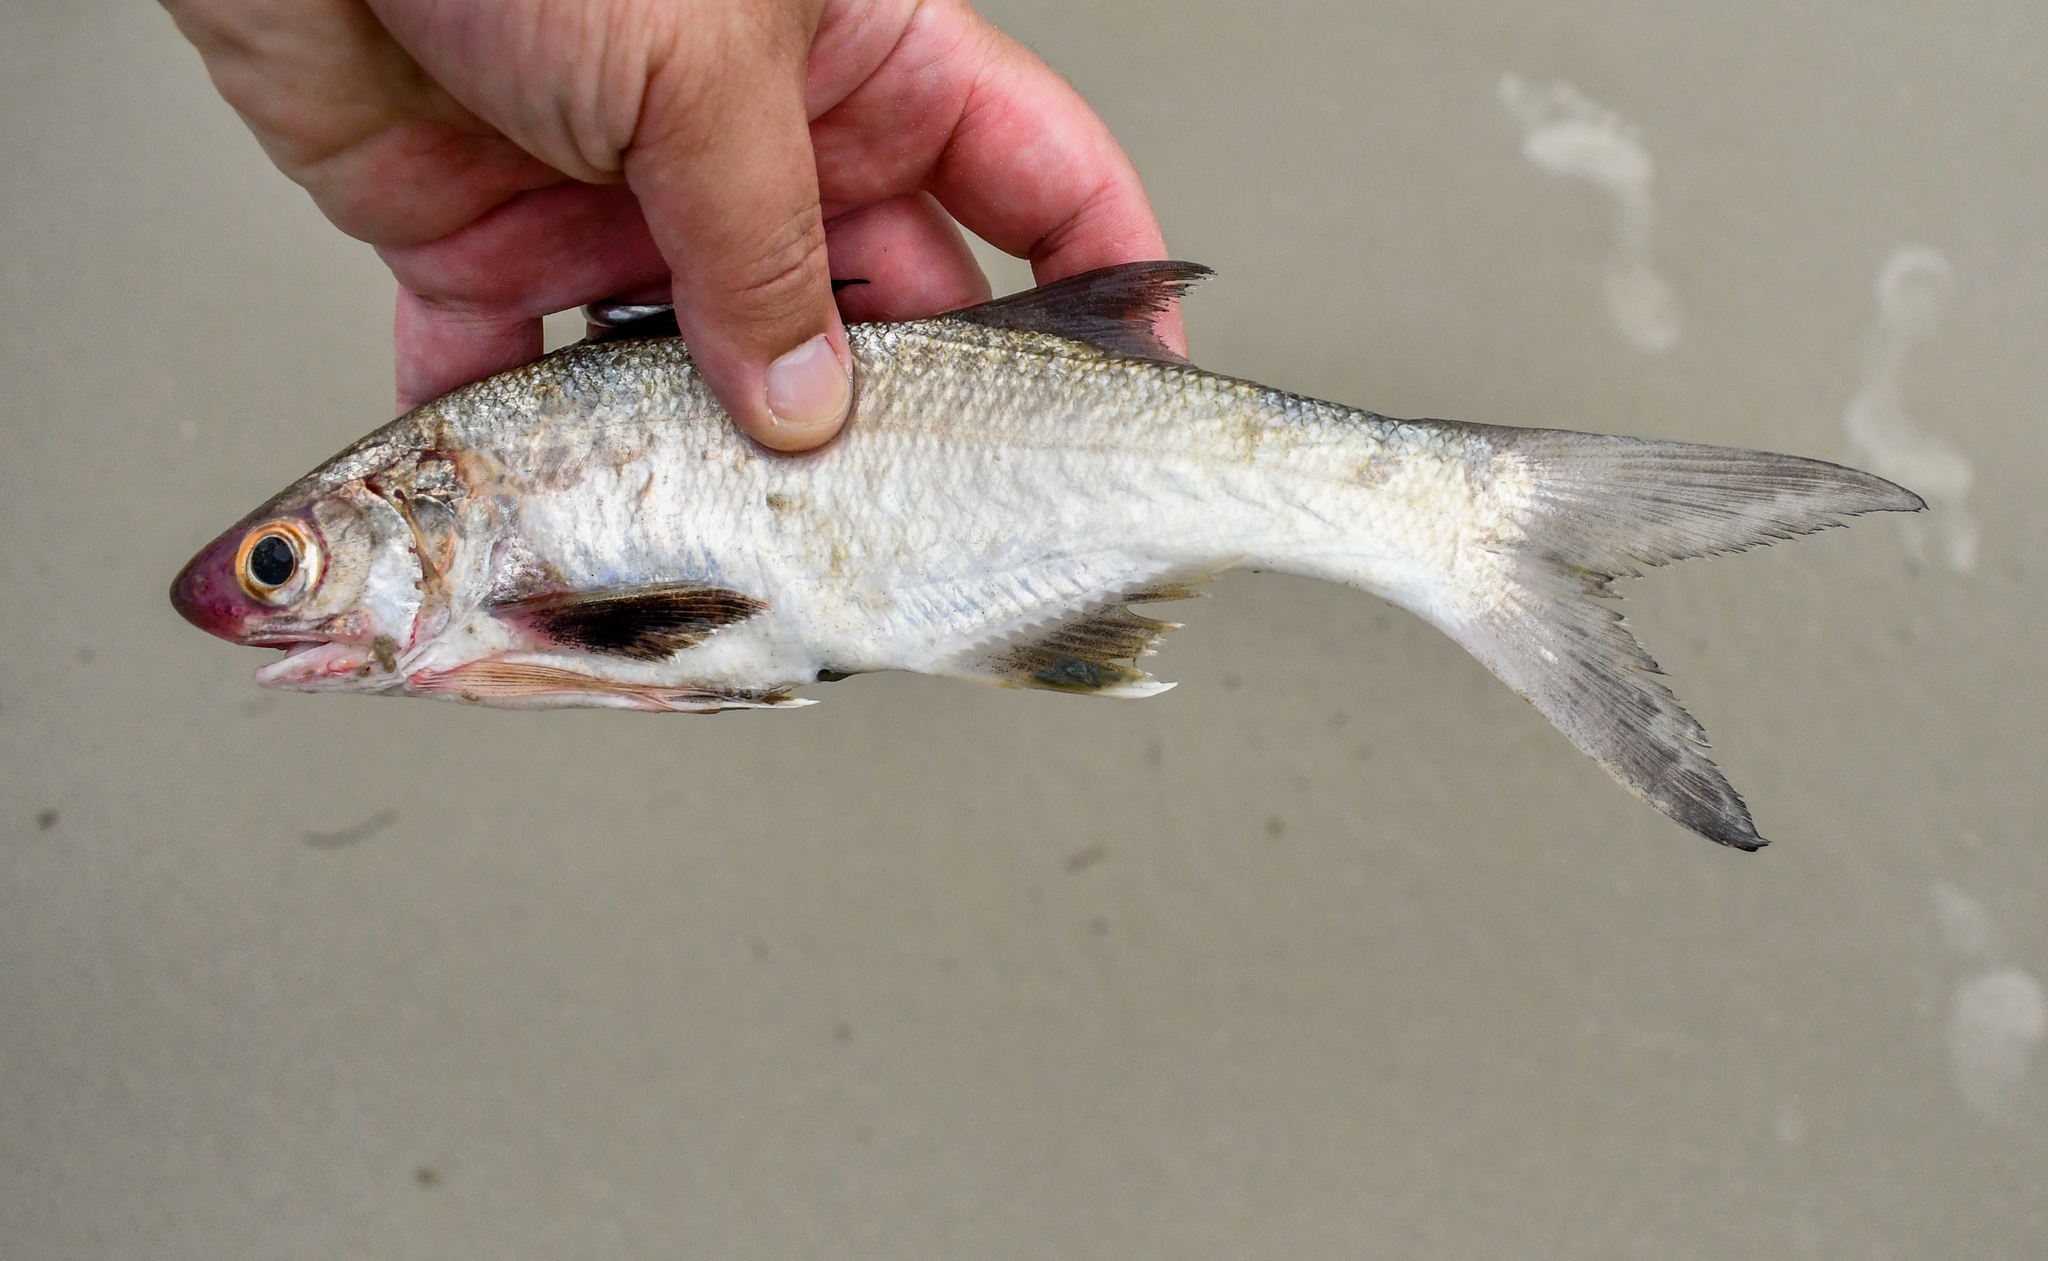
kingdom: Animalia
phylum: Chordata
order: Perciformes
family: Polynemidae
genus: Polydactylus
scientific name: Polydactylus oligodon
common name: Littlescale threadfin
